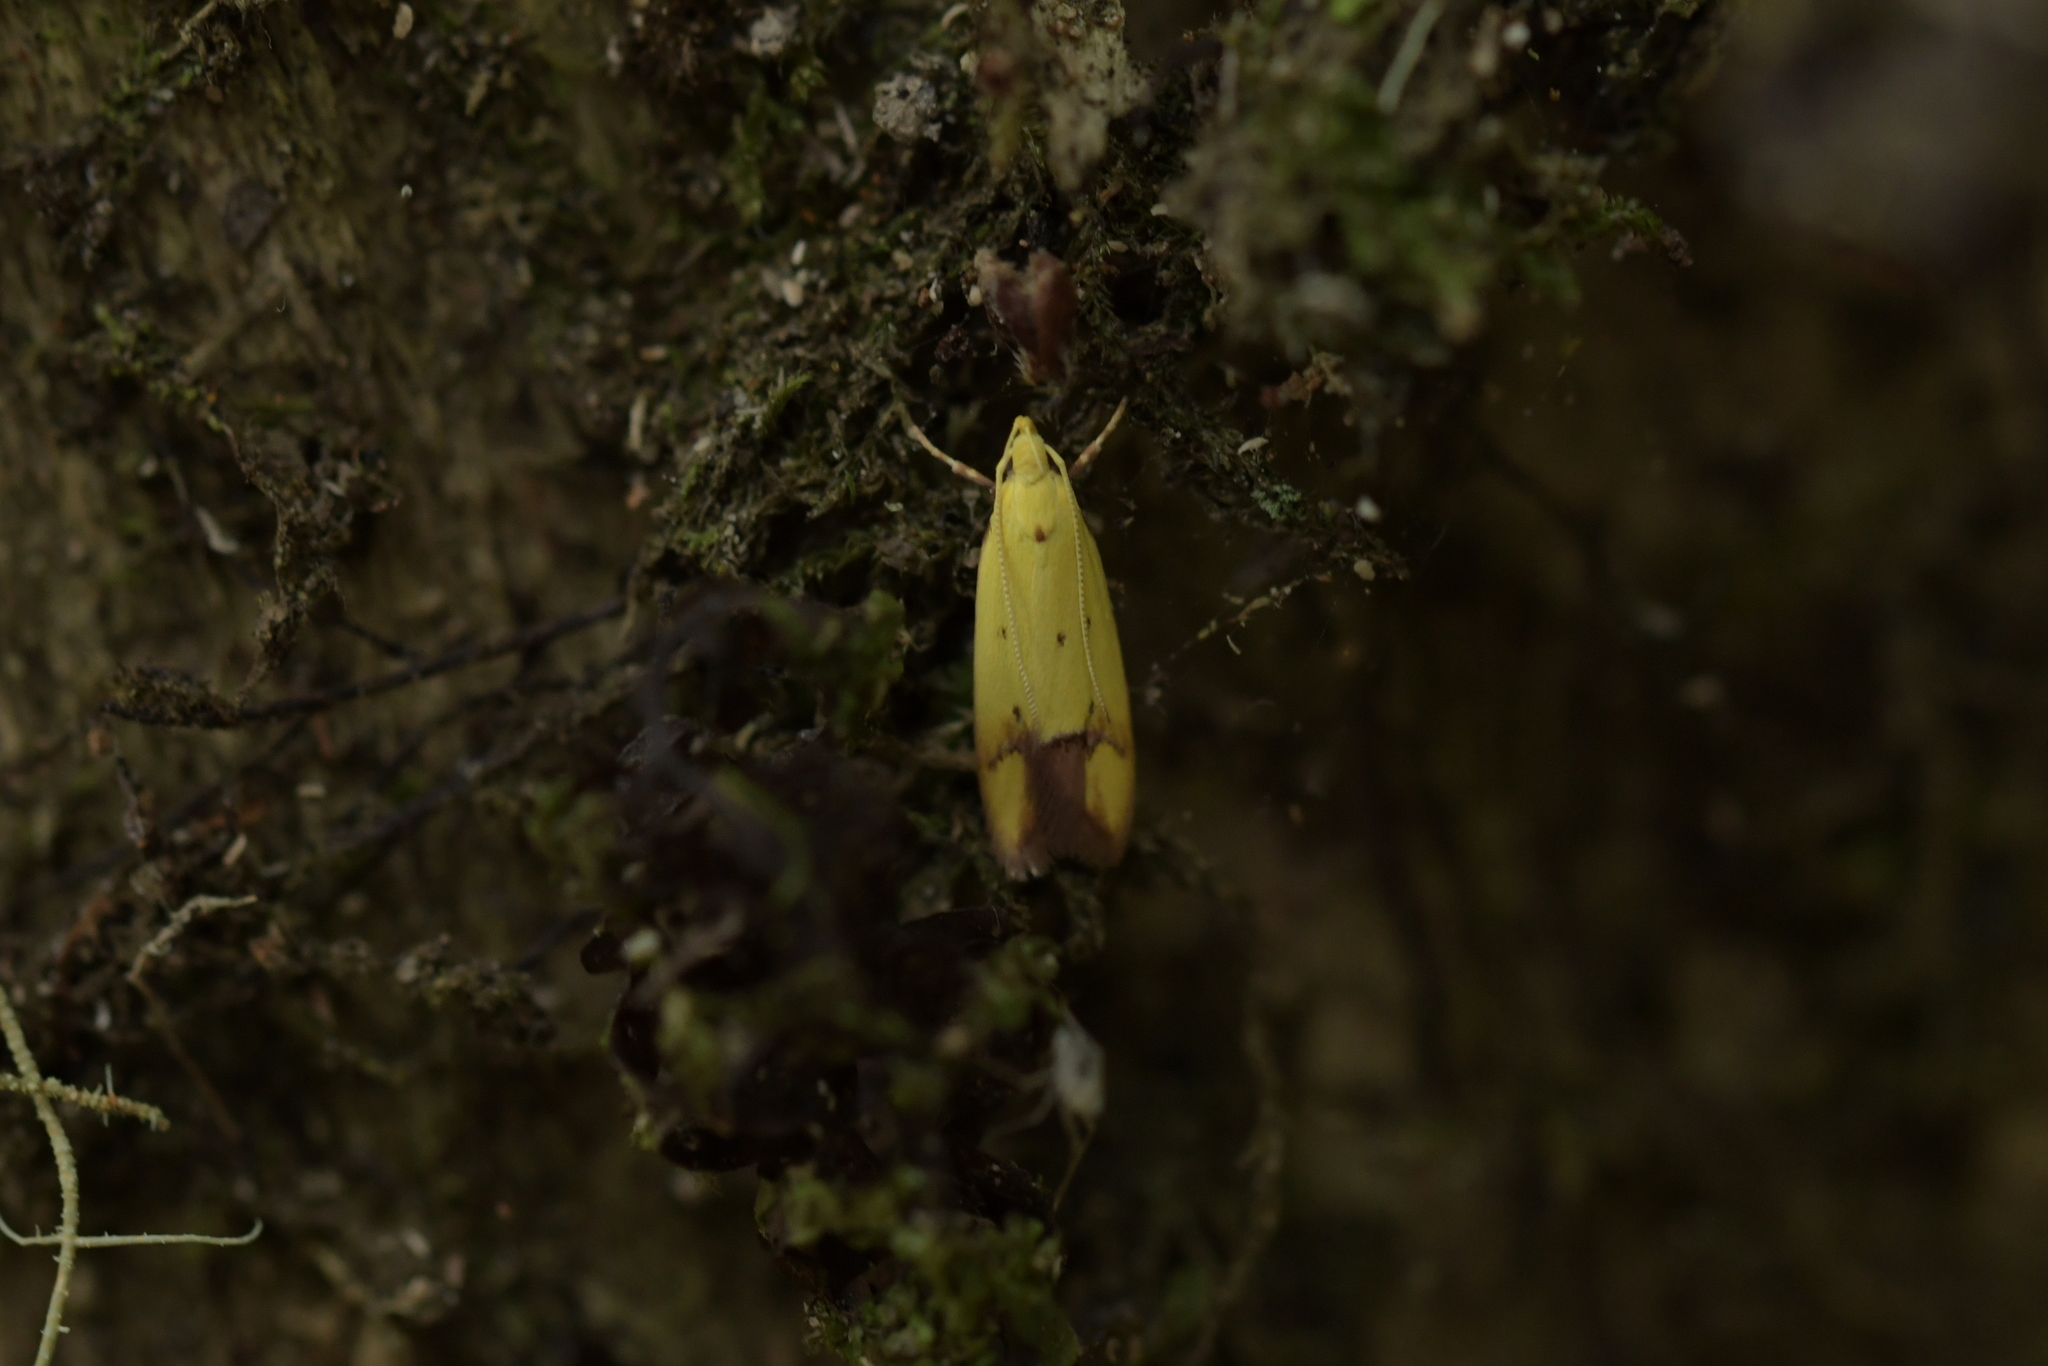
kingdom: Animalia
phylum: Arthropoda
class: Insecta
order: Lepidoptera
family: Oecophoridae
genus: Gymnobathra
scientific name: Gymnobathra flavidella
